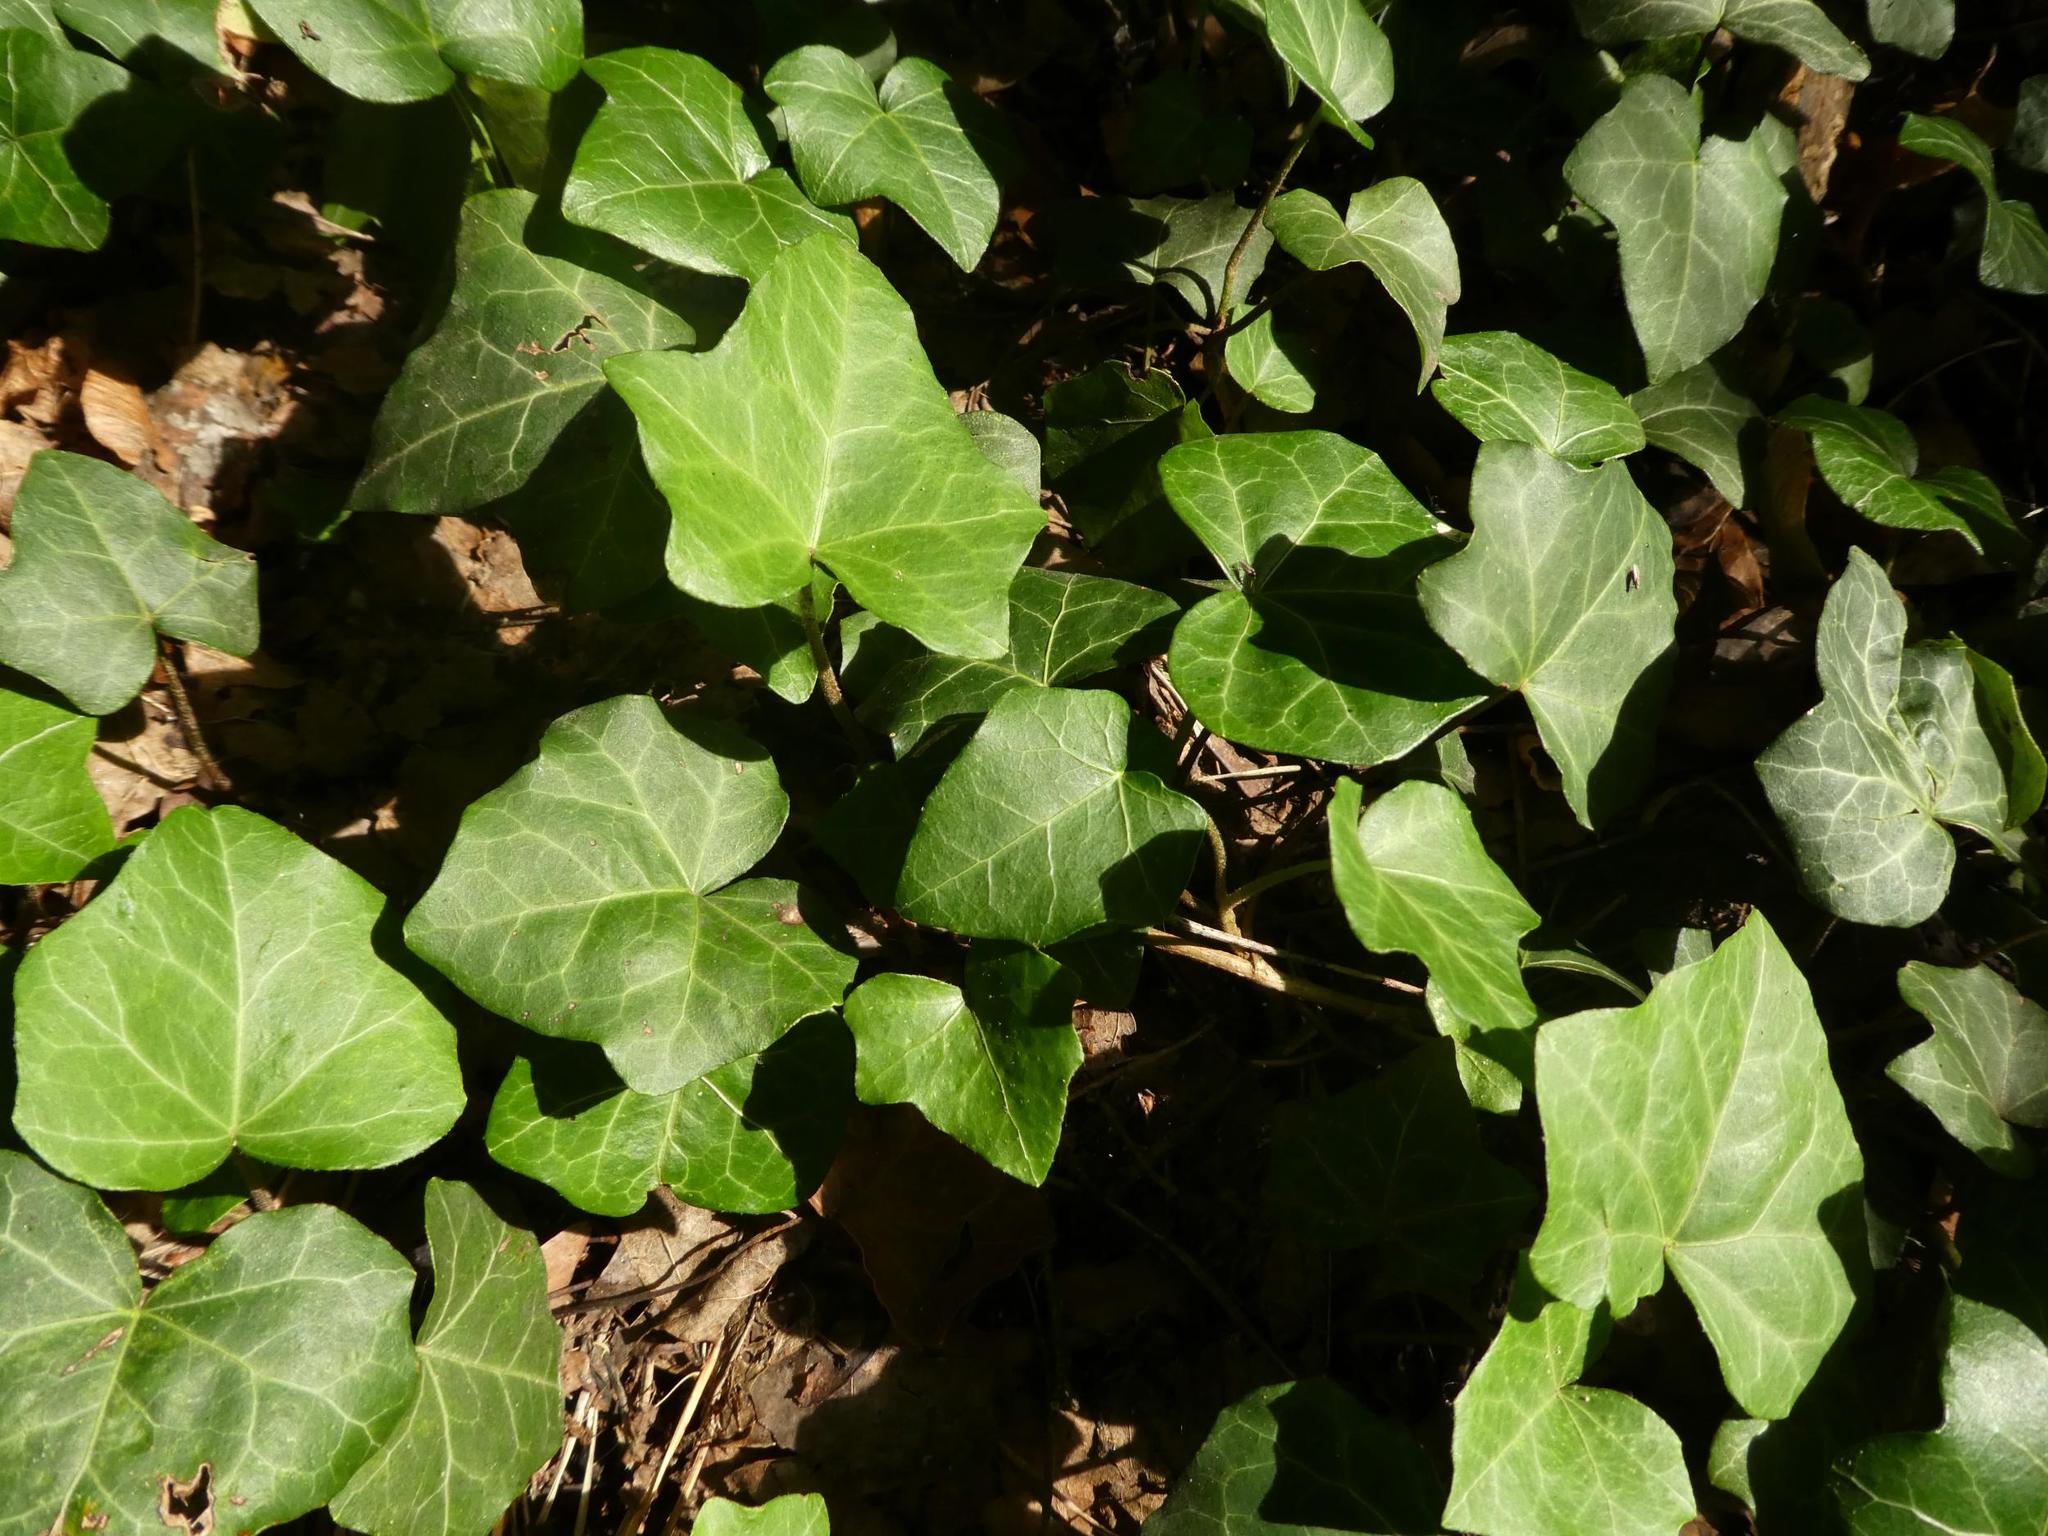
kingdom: Plantae
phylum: Tracheophyta
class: Magnoliopsida
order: Apiales
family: Araliaceae
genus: Hedera
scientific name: Hedera helix
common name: Ivy
